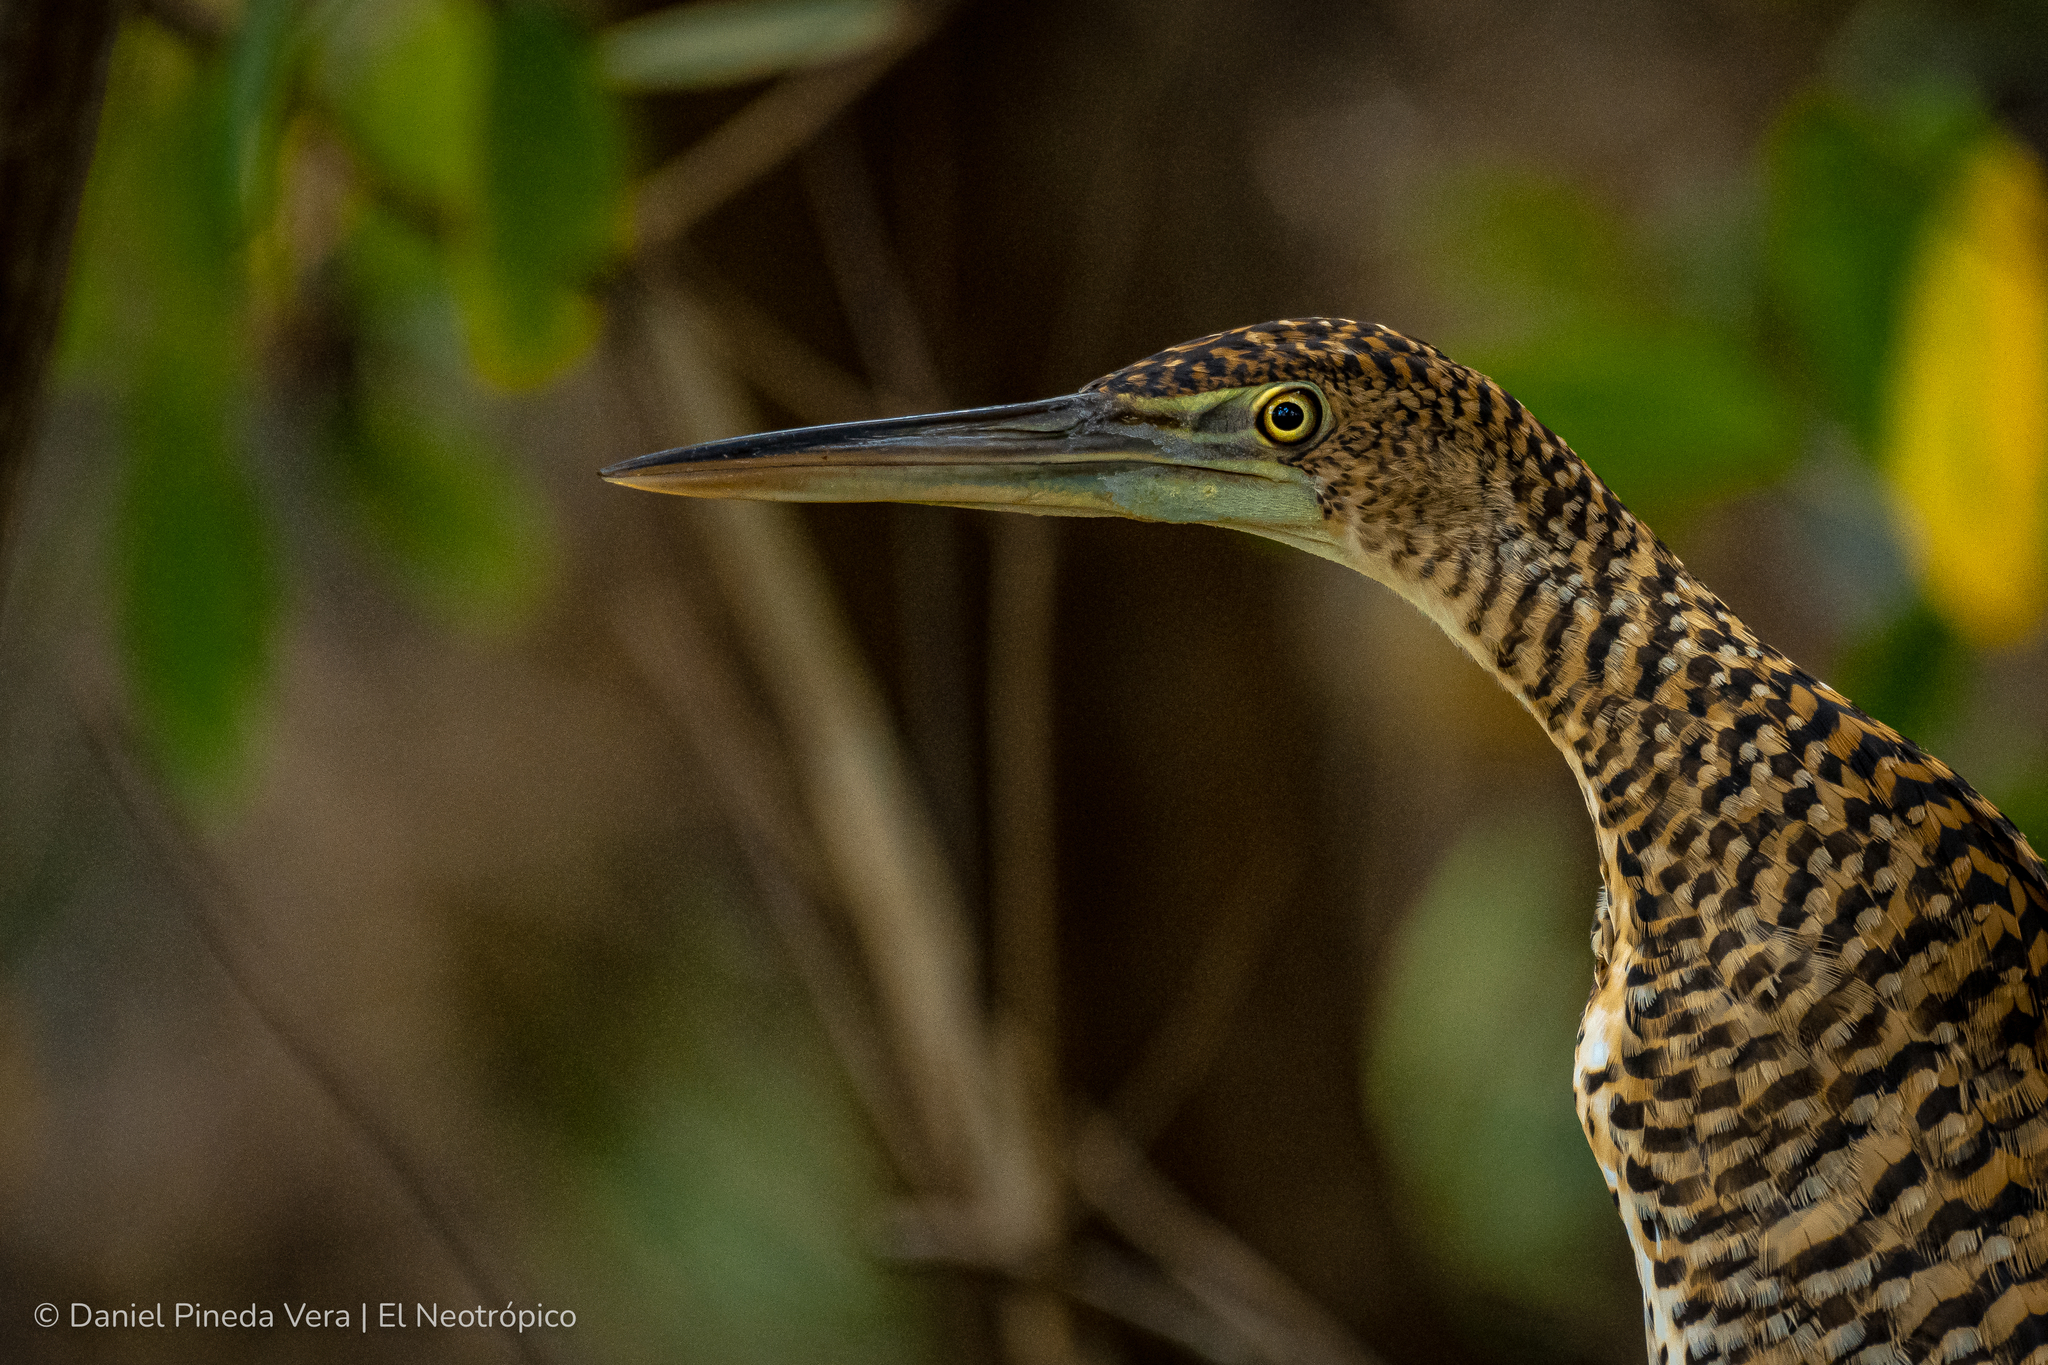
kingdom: Animalia
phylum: Chordata
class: Aves
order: Pelecaniformes
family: Ardeidae
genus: Tigrisoma
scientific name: Tigrisoma mexicanum
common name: Bare-throated tiger-heron
